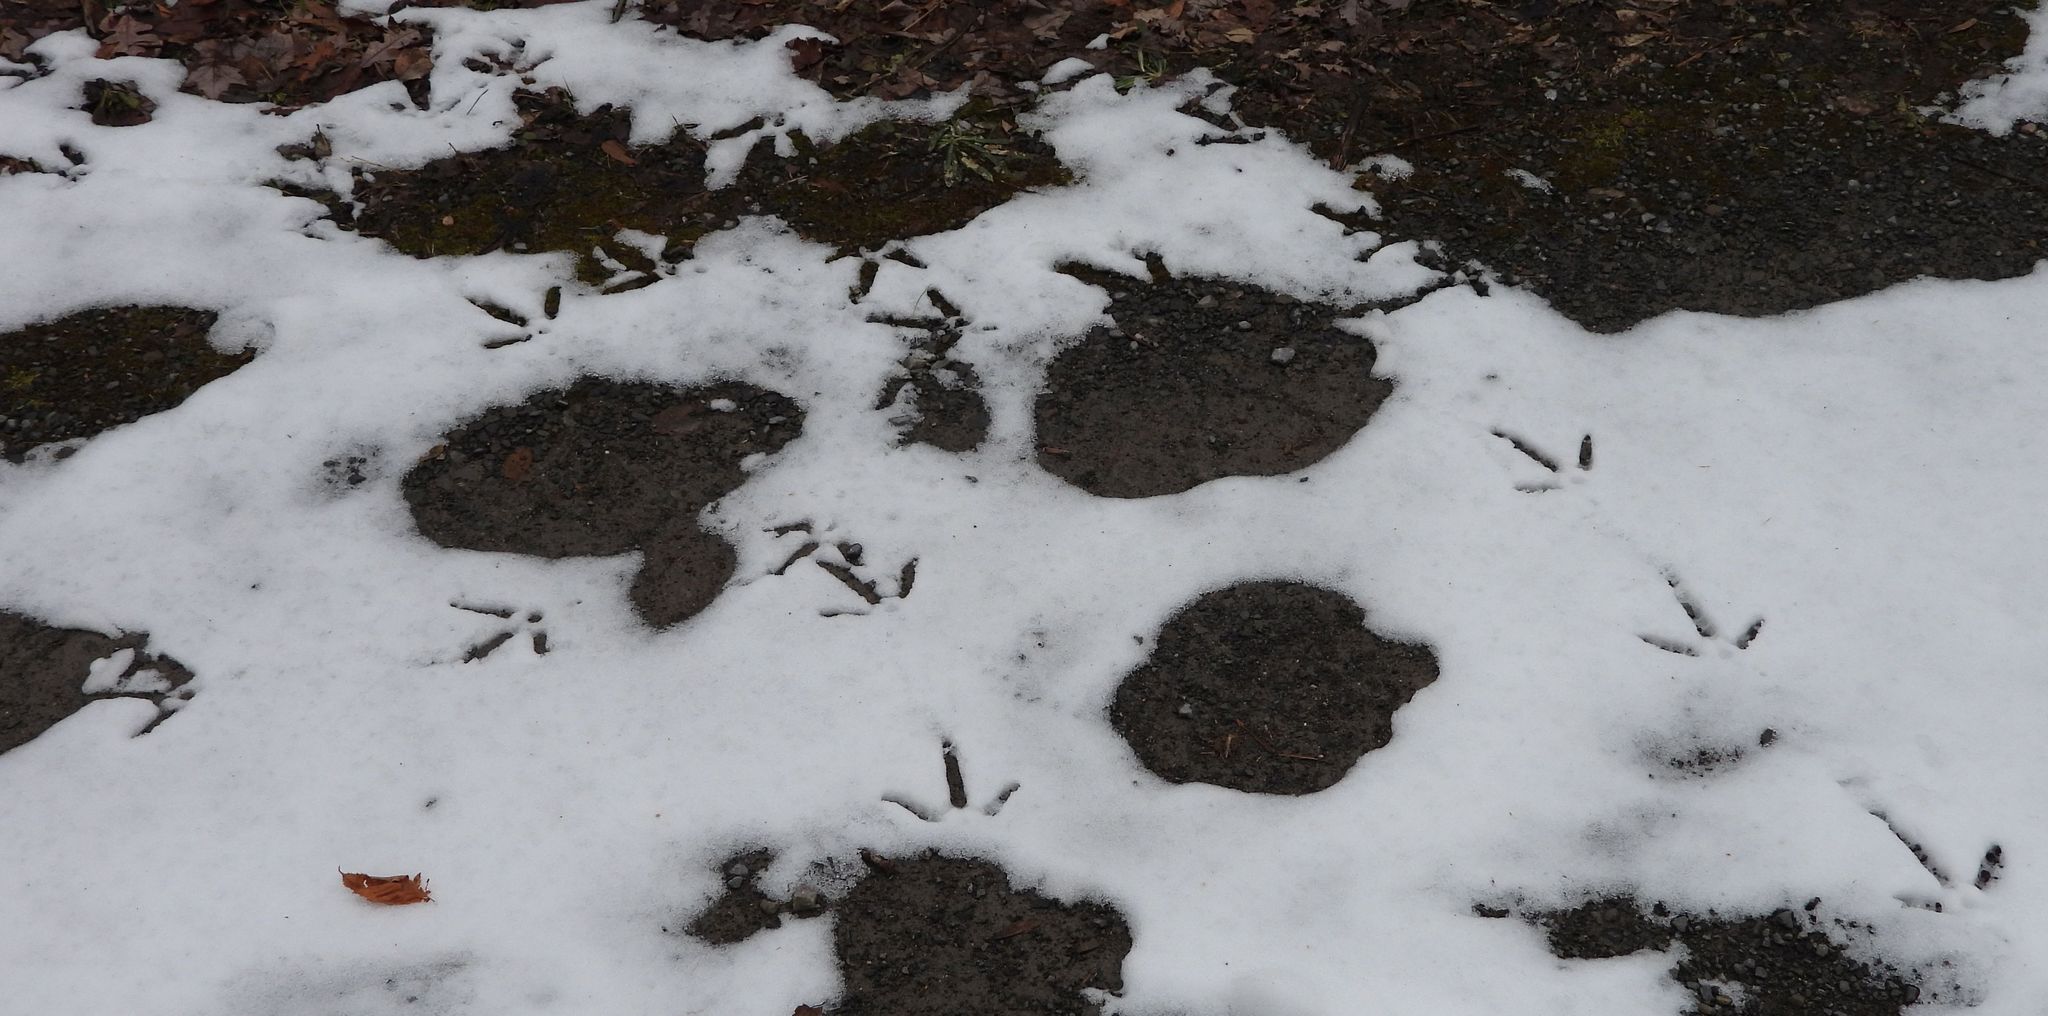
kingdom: Animalia
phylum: Chordata
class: Aves
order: Galliformes
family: Phasianidae
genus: Meleagris
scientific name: Meleagris gallopavo
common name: Wild turkey
